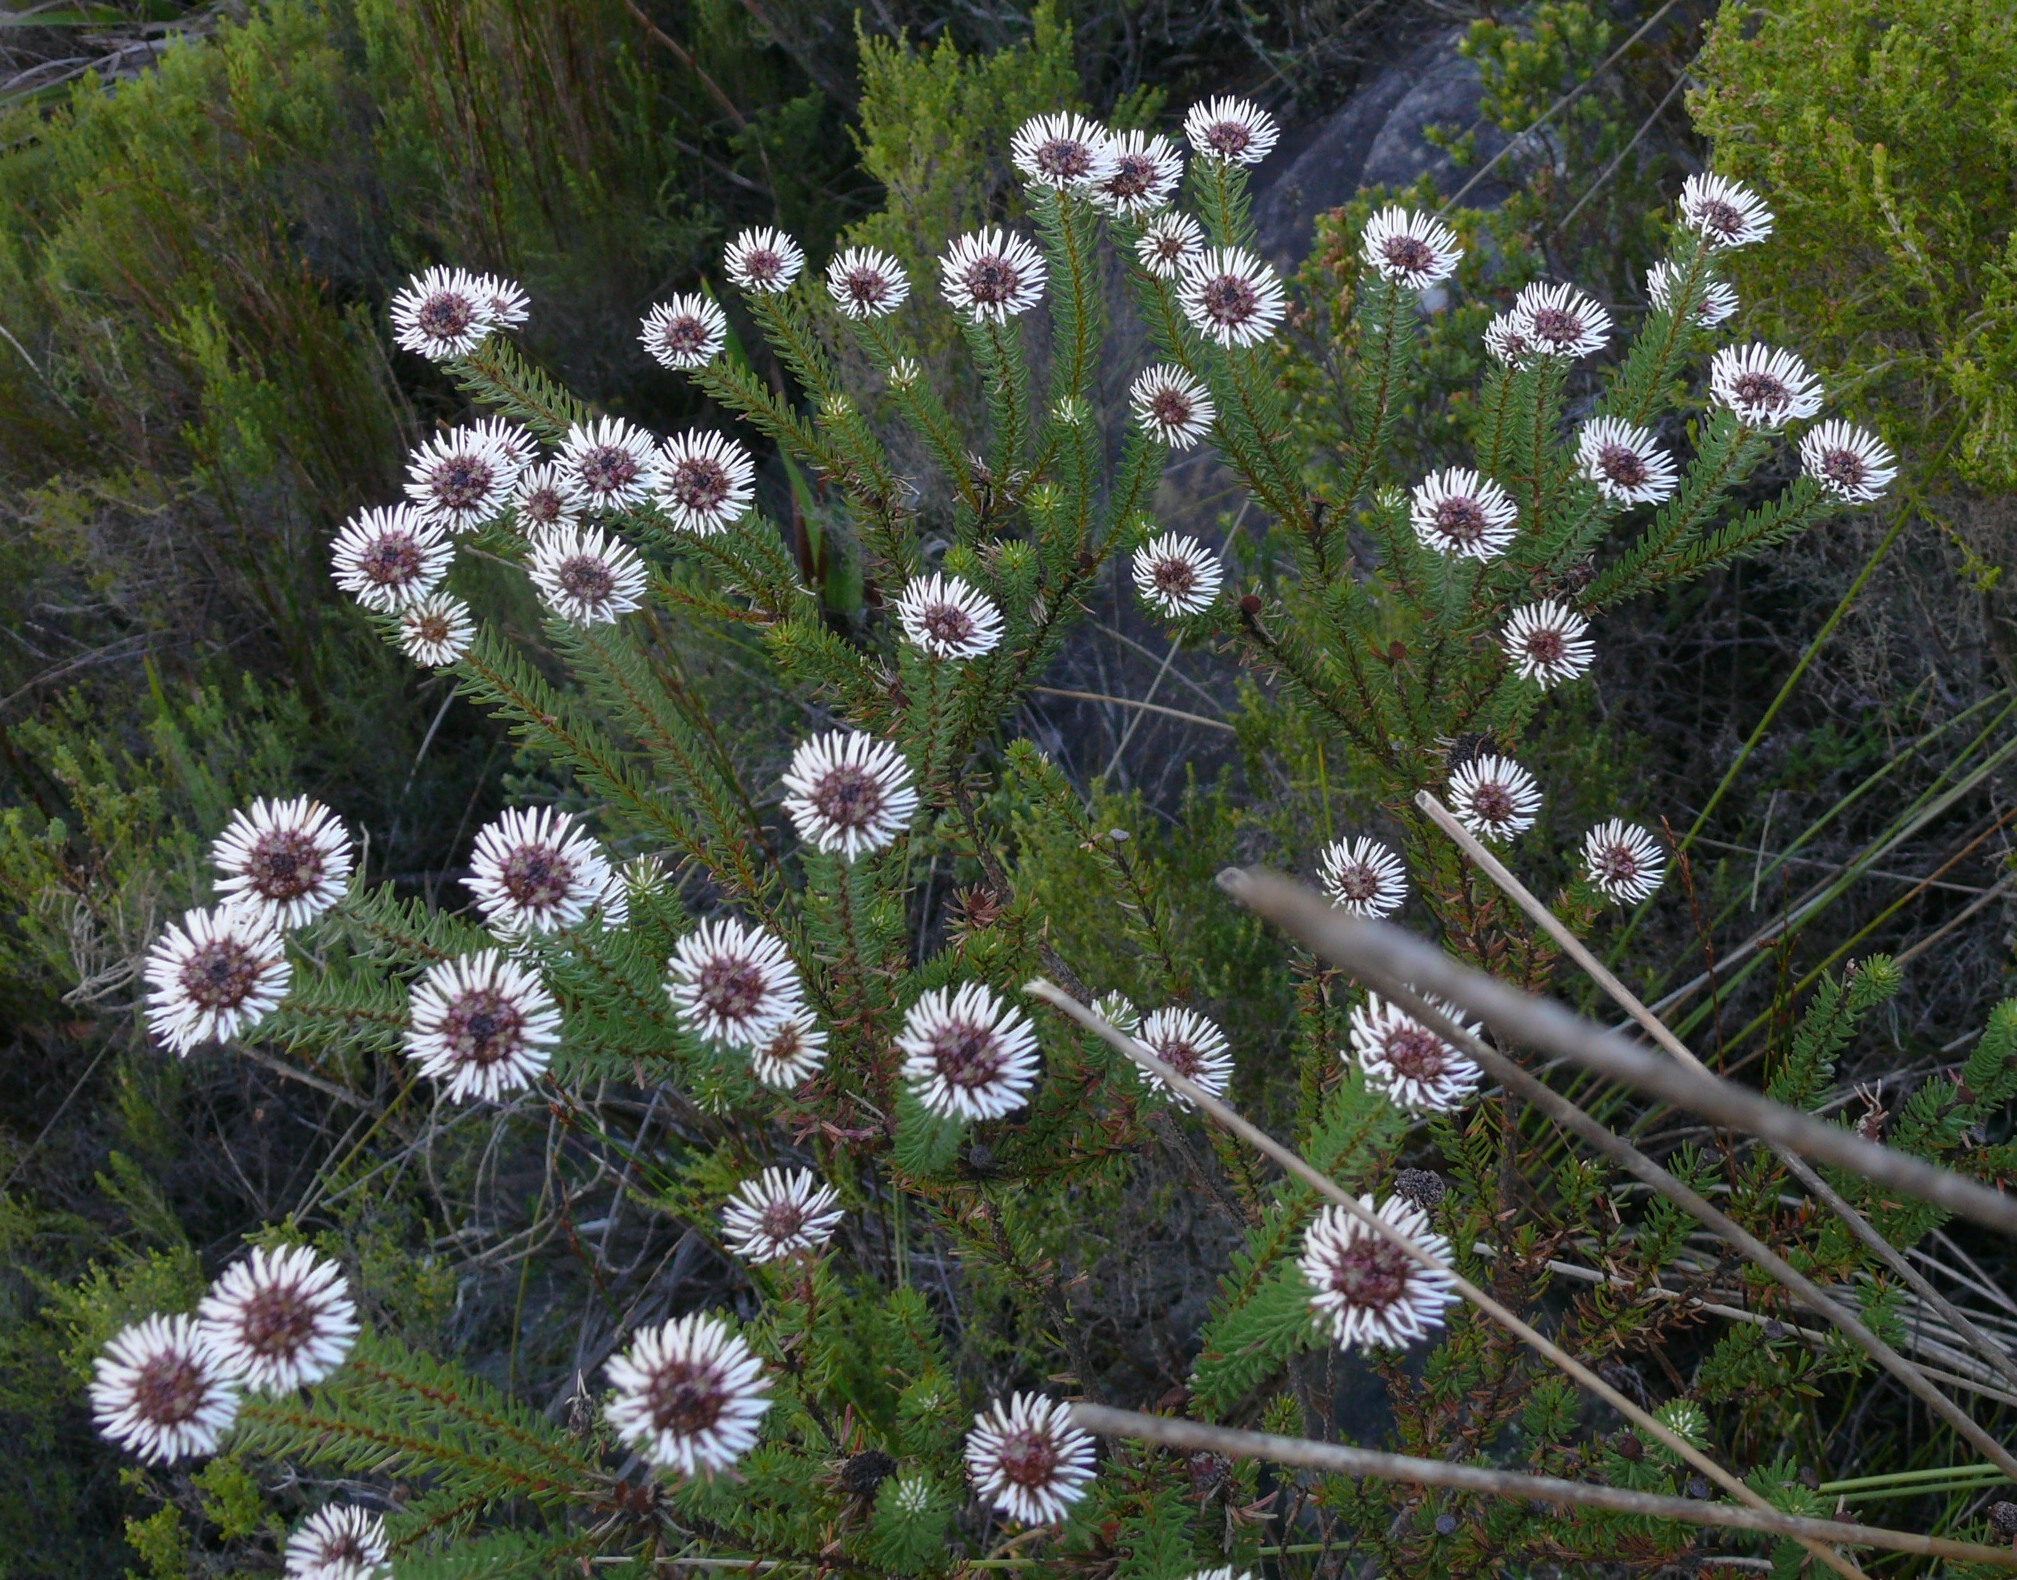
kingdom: Plantae
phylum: Tracheophyta
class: Magnoliopsida
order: Bruniales
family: Bruniaceae
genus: Staavia
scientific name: Staavia glutinosa
